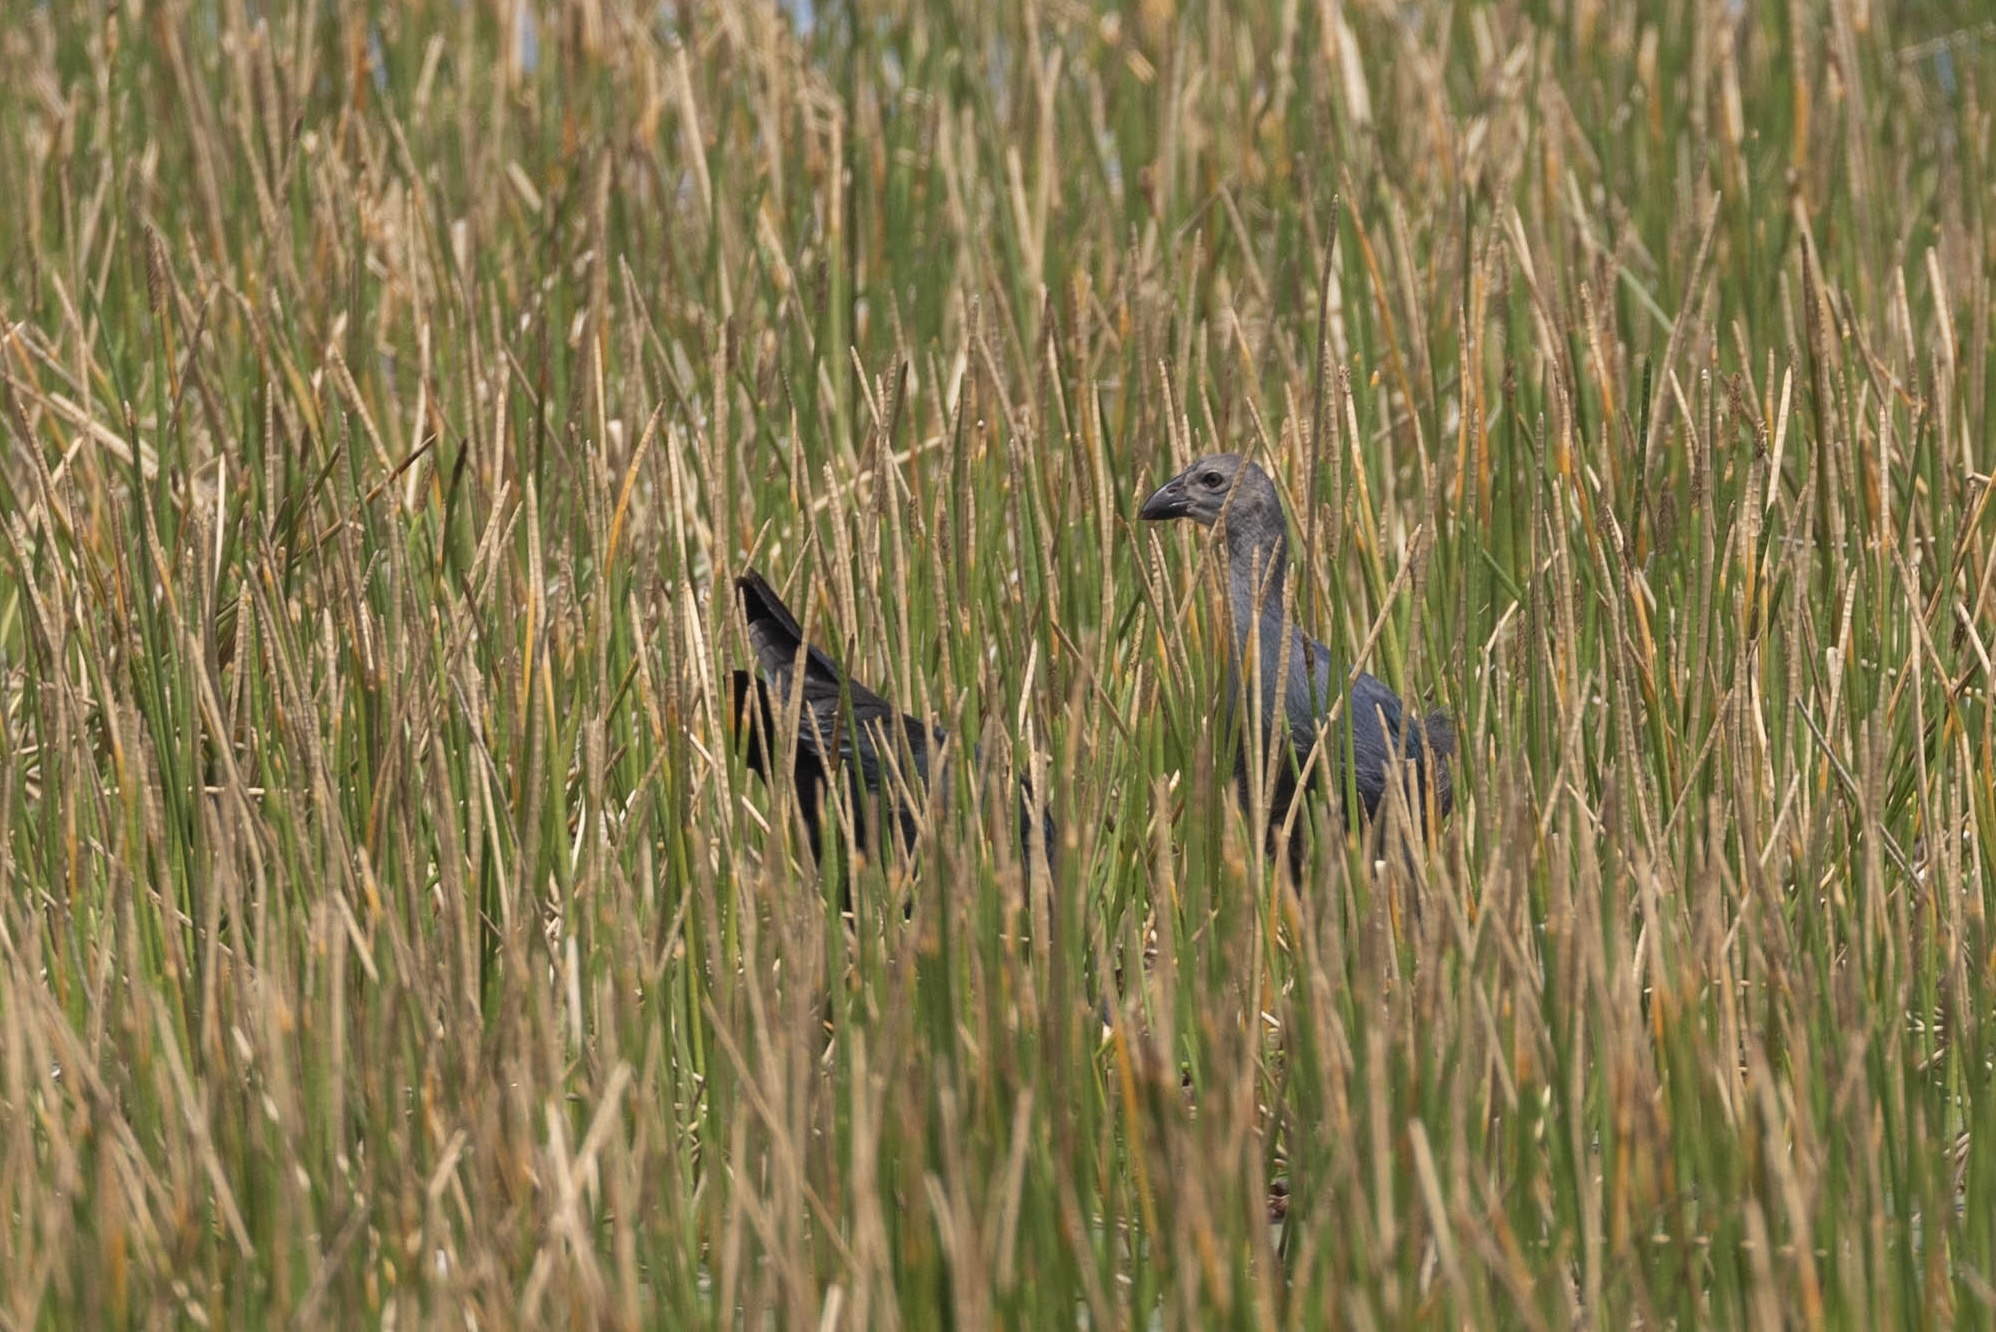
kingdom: Animalia
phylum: Chordata
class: Aves
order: Gruiformes
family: Rallidae
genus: Porphyrio
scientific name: Porphyrio porphyrio
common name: Purple swamphen
